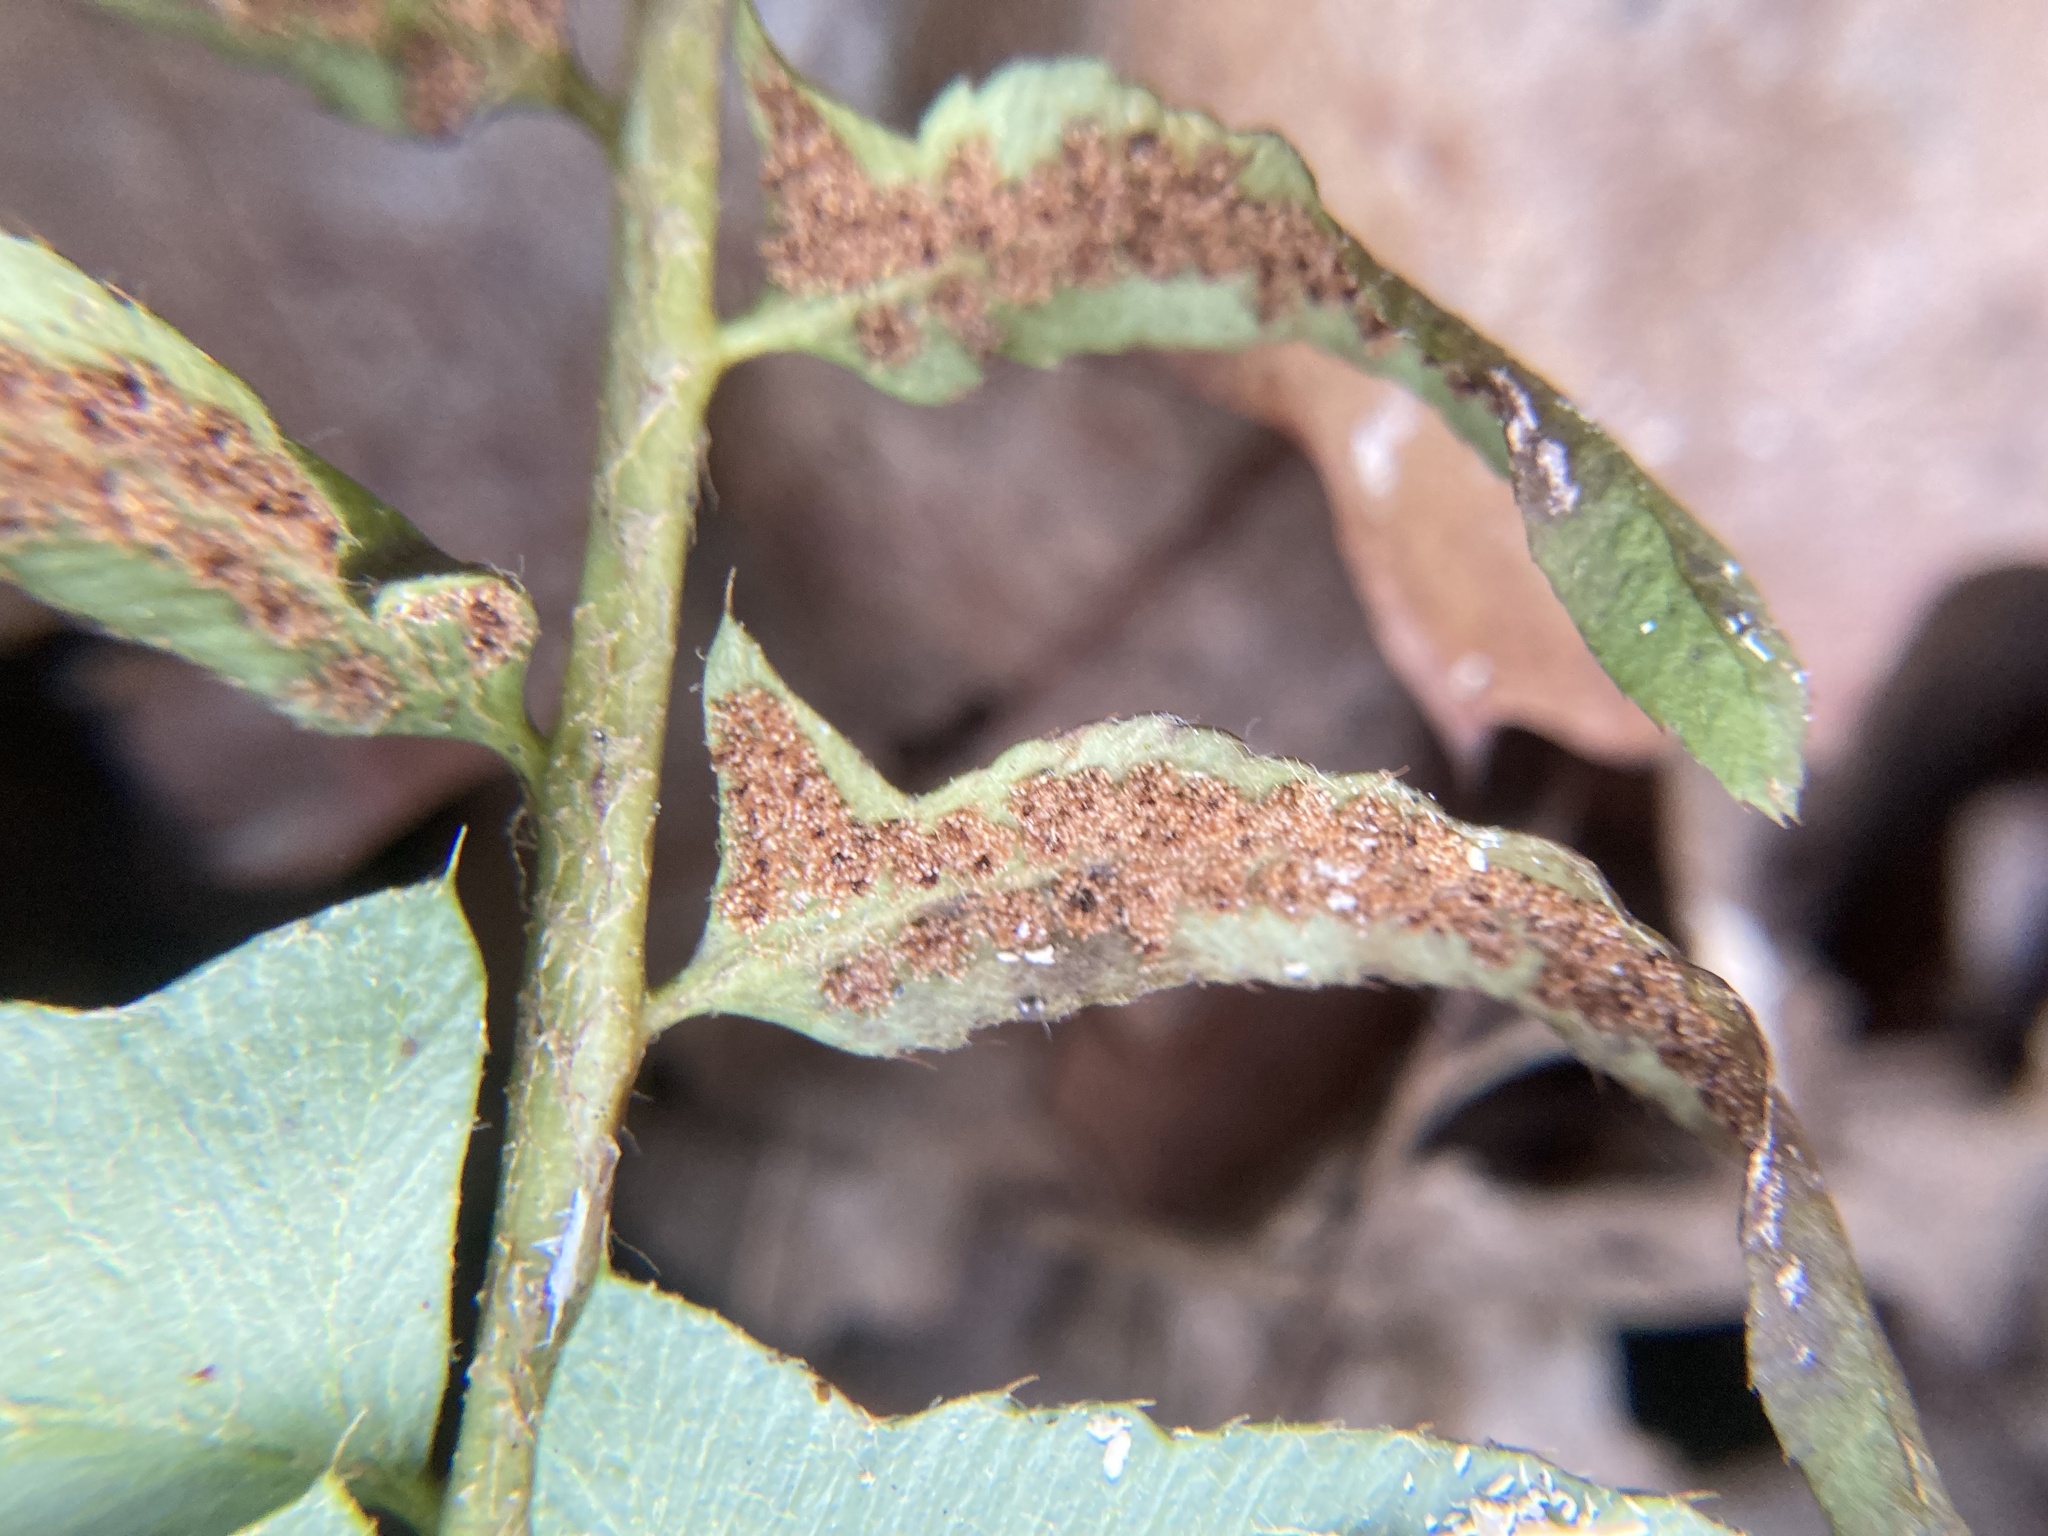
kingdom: Plantae
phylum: Tracheophyta
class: Polypodiopsida
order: Polypodiales
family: Dryopteridaceae
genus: Polystichum
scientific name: Polystichum acrostichoides
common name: Christmas fern
